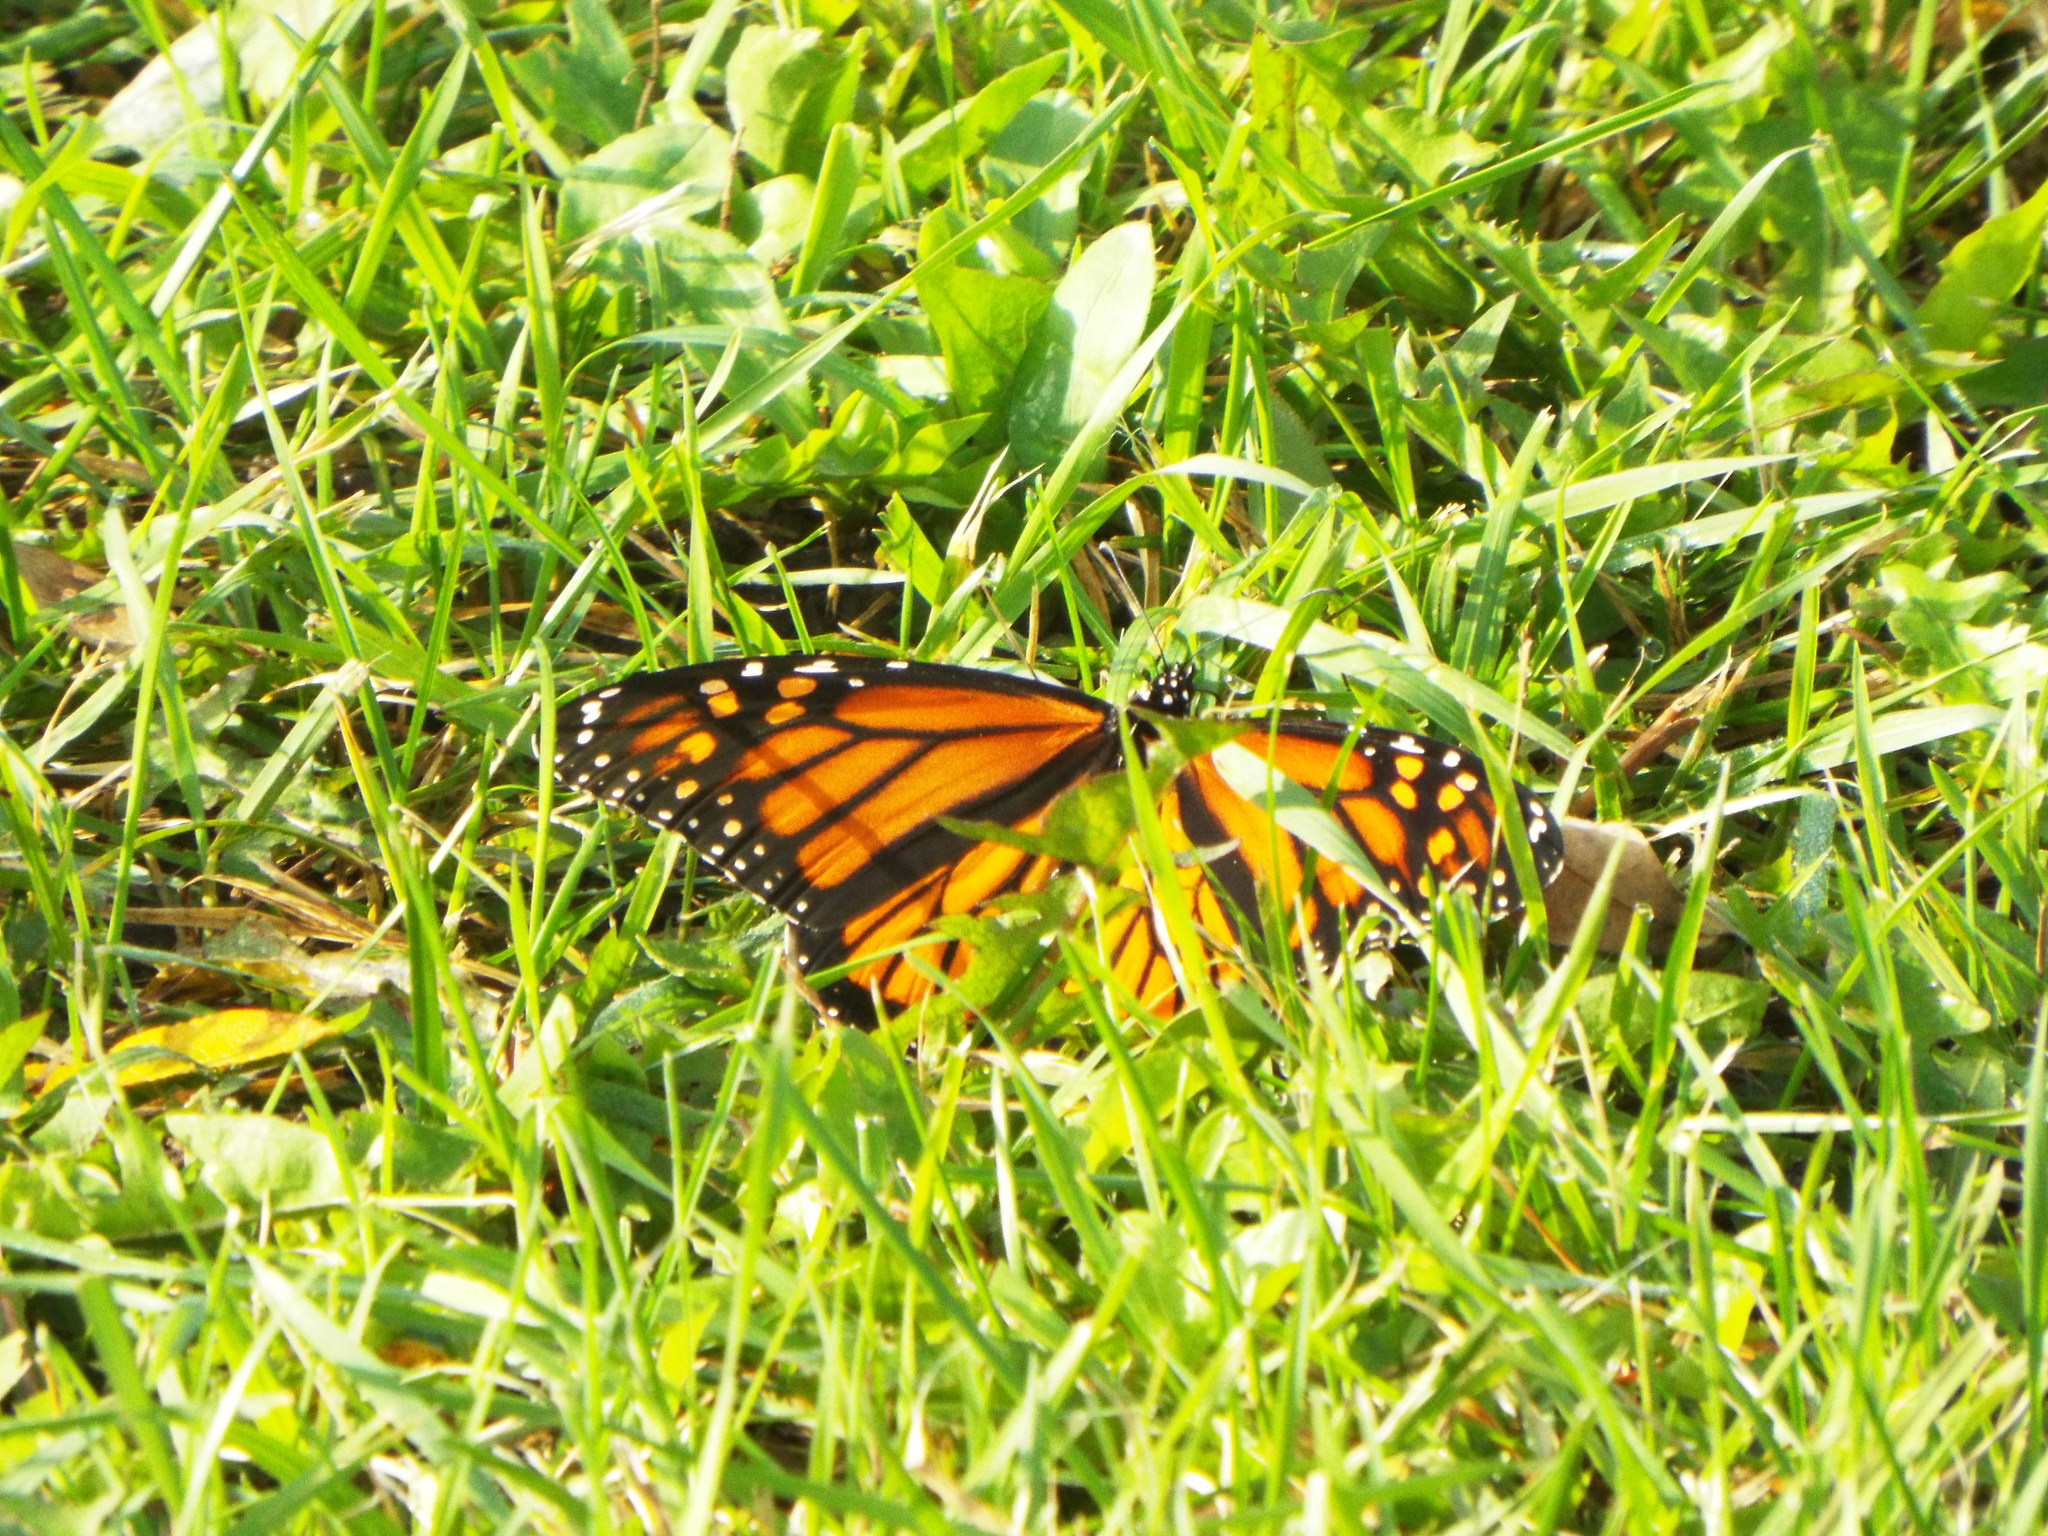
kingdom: Animalia
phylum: Arthropoda
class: Insecta
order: Lepidoptera
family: Nymphalidae
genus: Danaus
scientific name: Danaus plexippus
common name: Monarch
